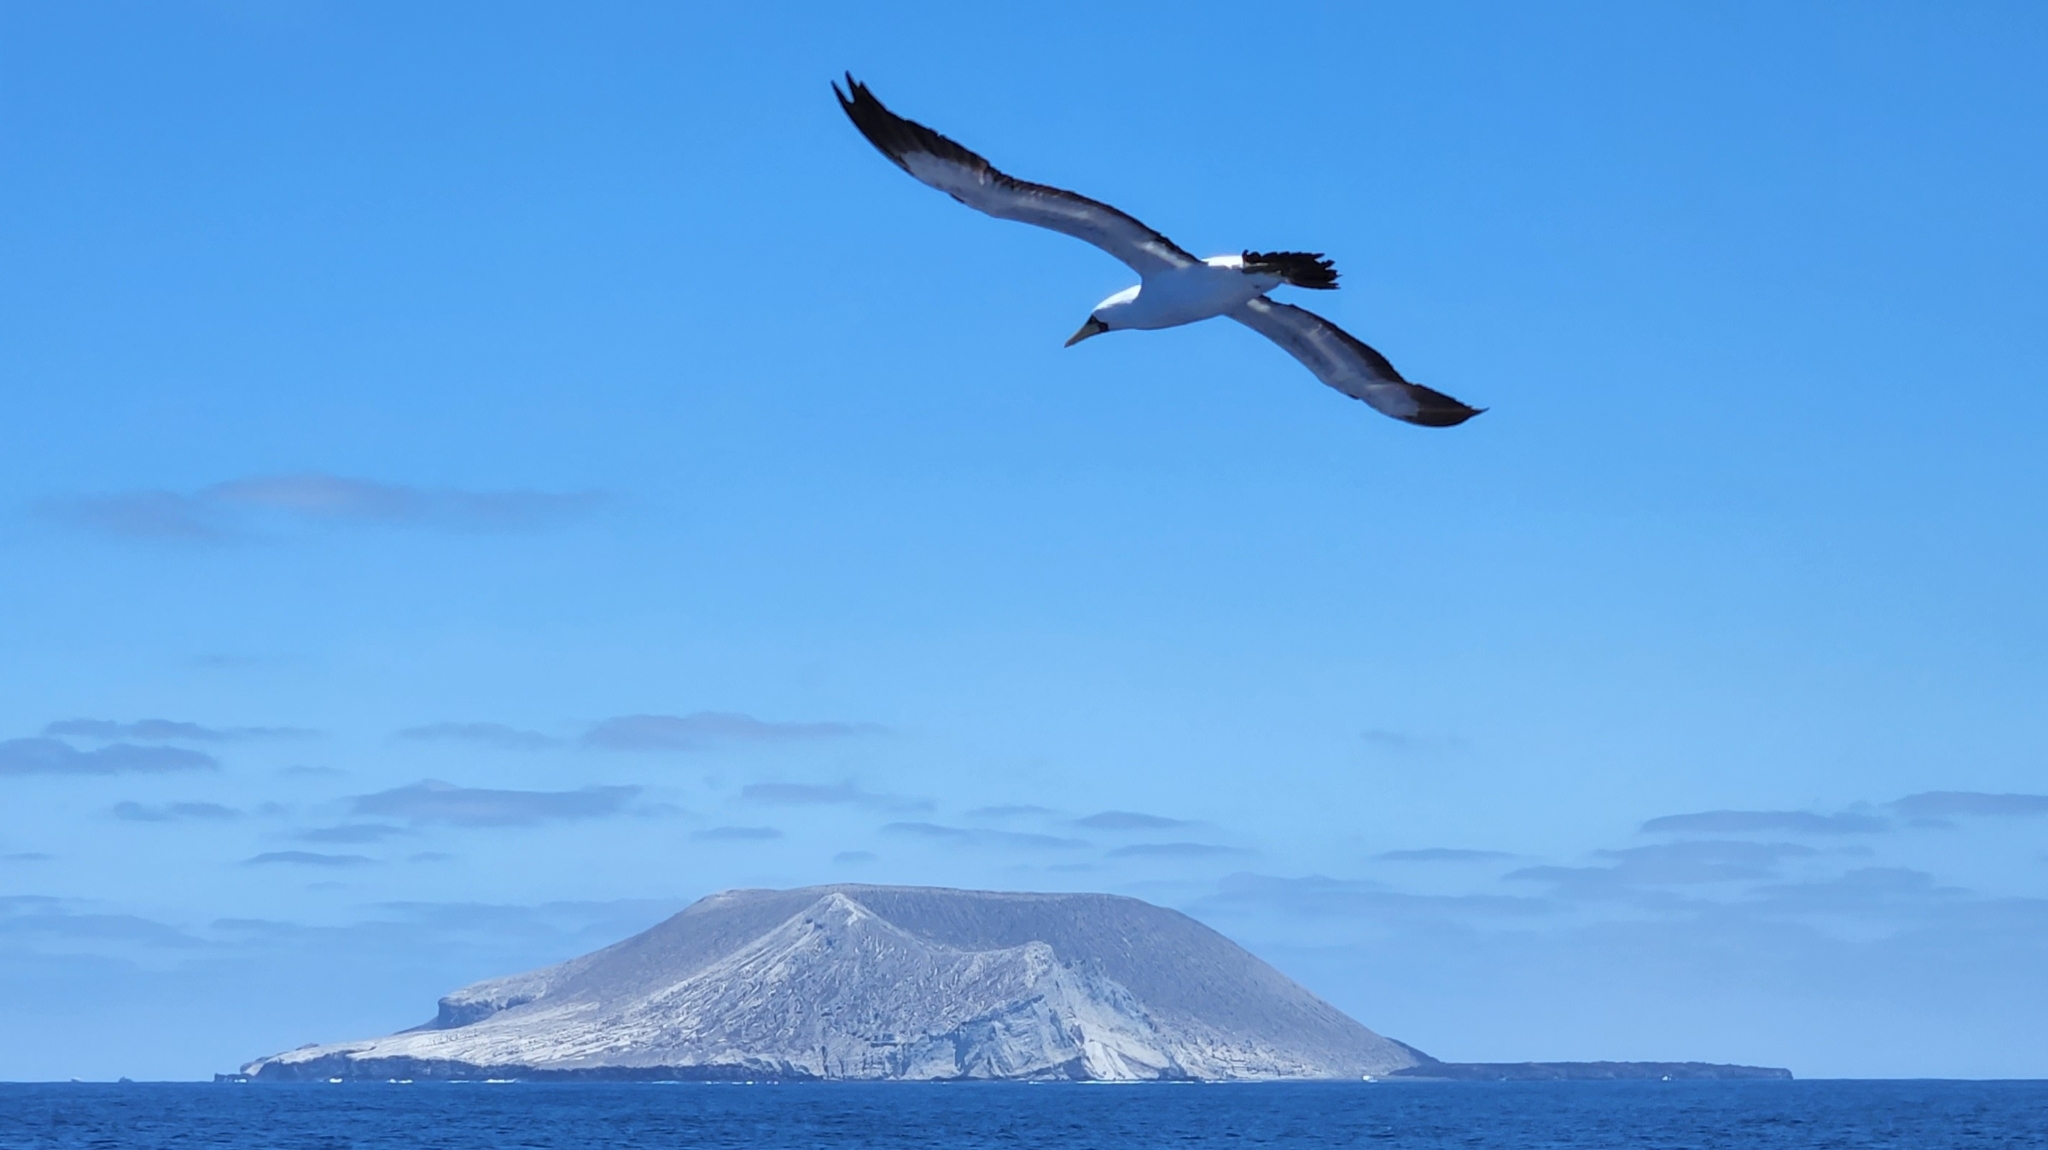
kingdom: Animalia
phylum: Chordata
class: Aves
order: Suliformes
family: Sulidae
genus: Sula
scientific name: Sula dactylatra
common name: Masked booby
